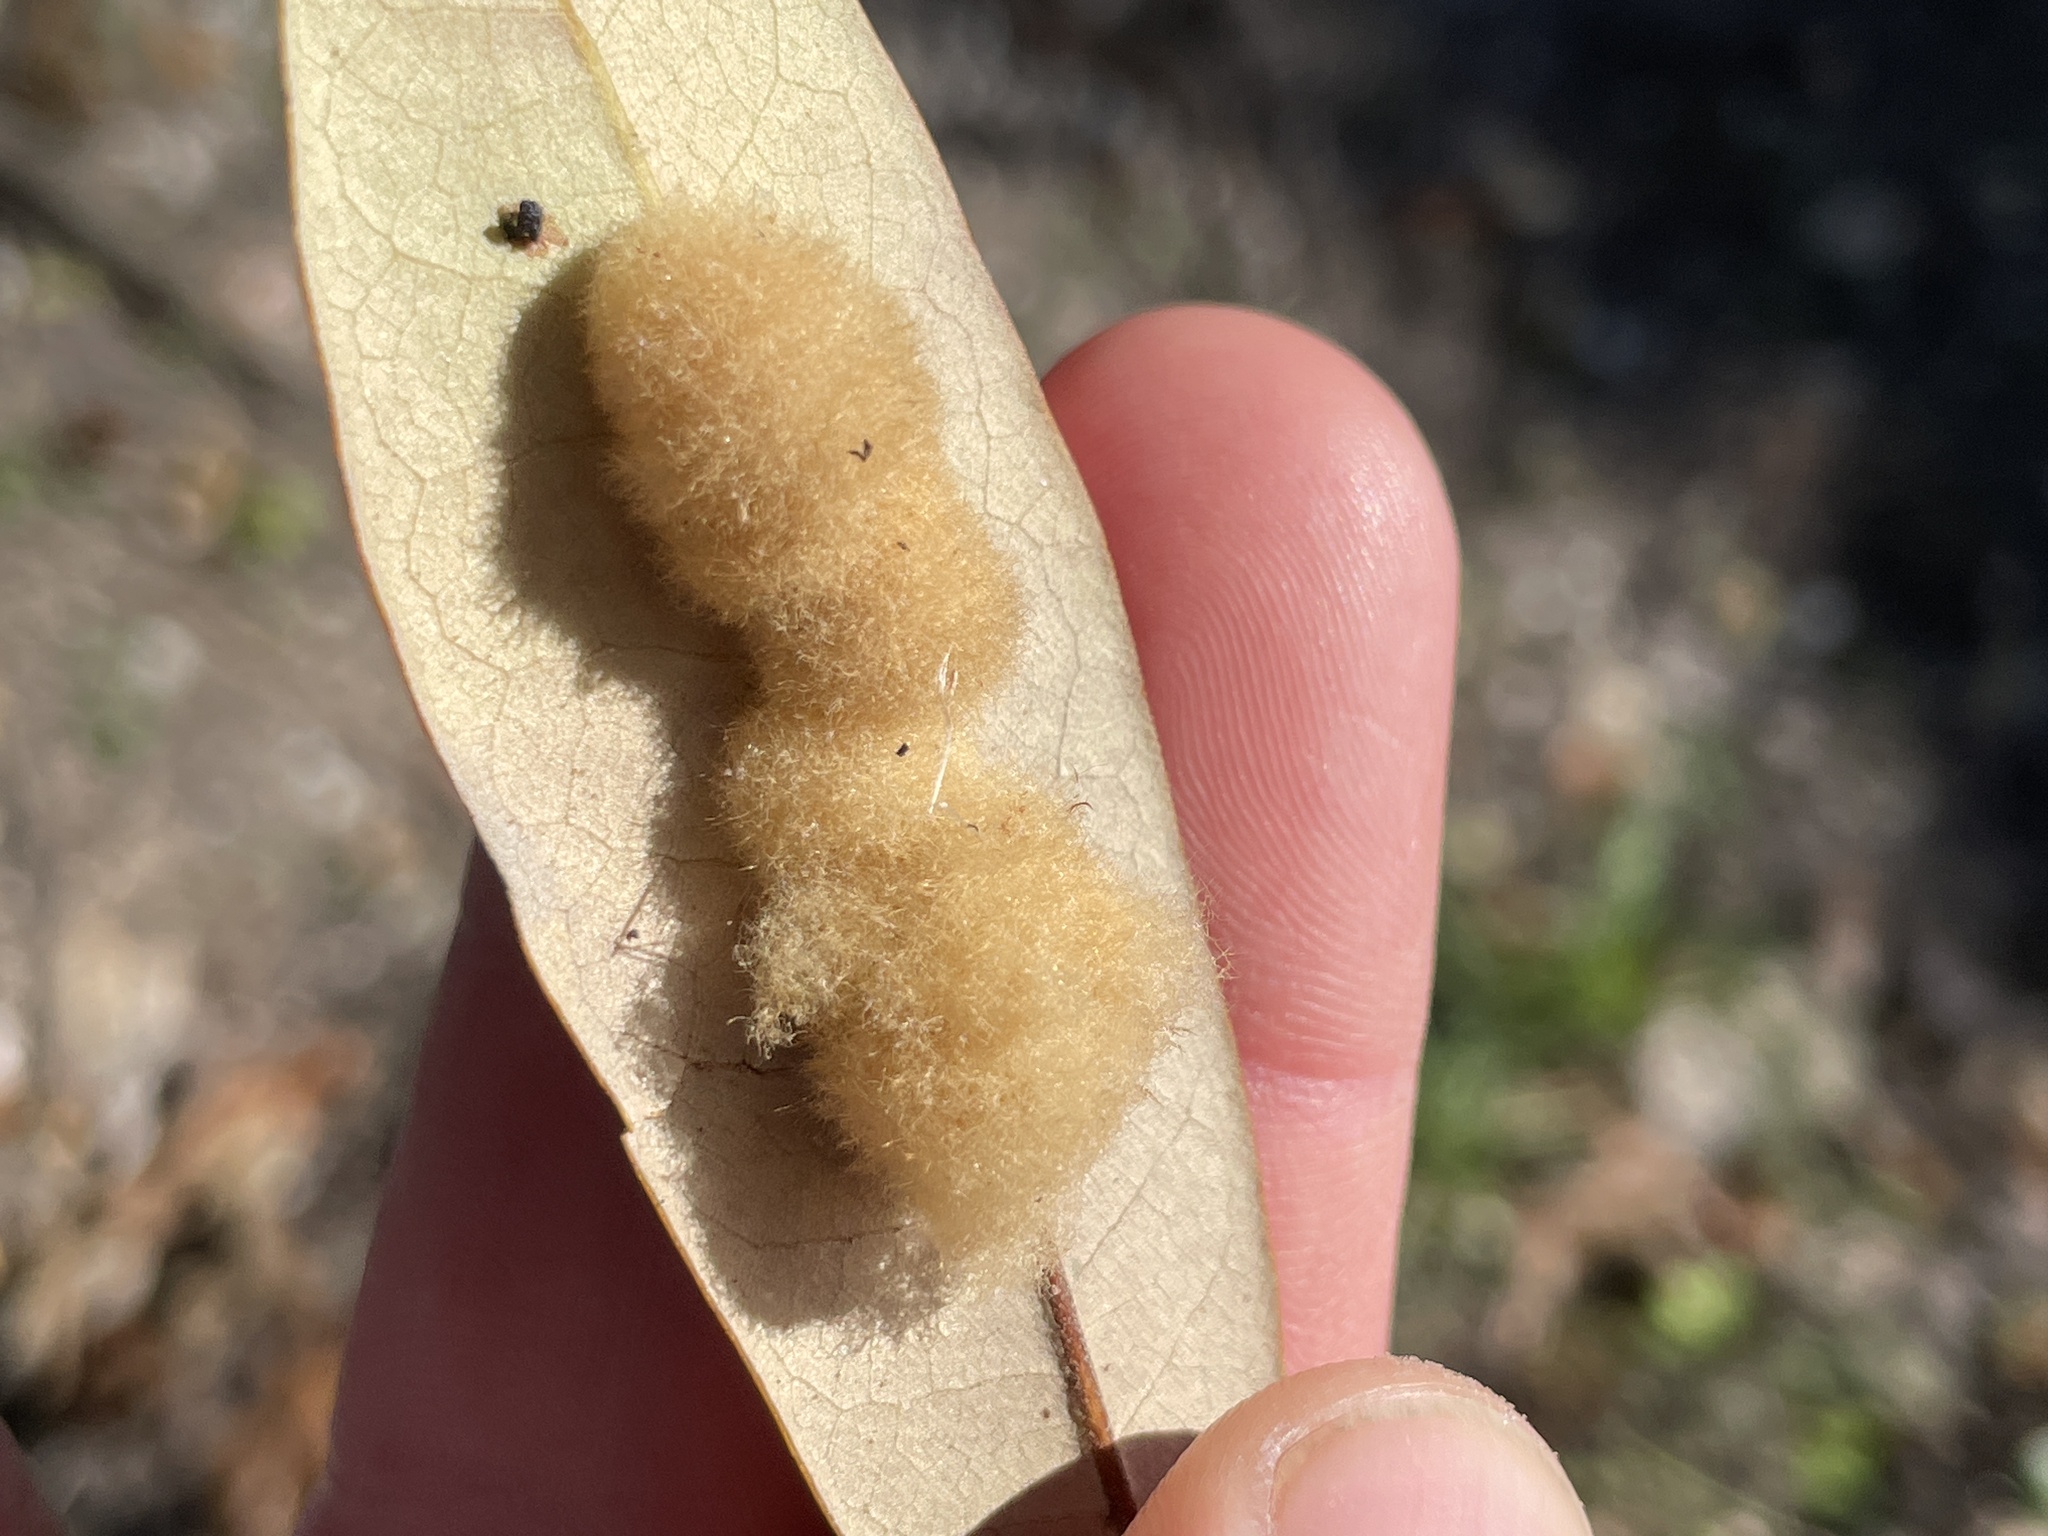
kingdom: Animalia
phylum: Arthropoda
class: Insecta
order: Hymenoptera
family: Cynipidae
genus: Andricus
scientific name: Andricus Druon quercuslanigerum
